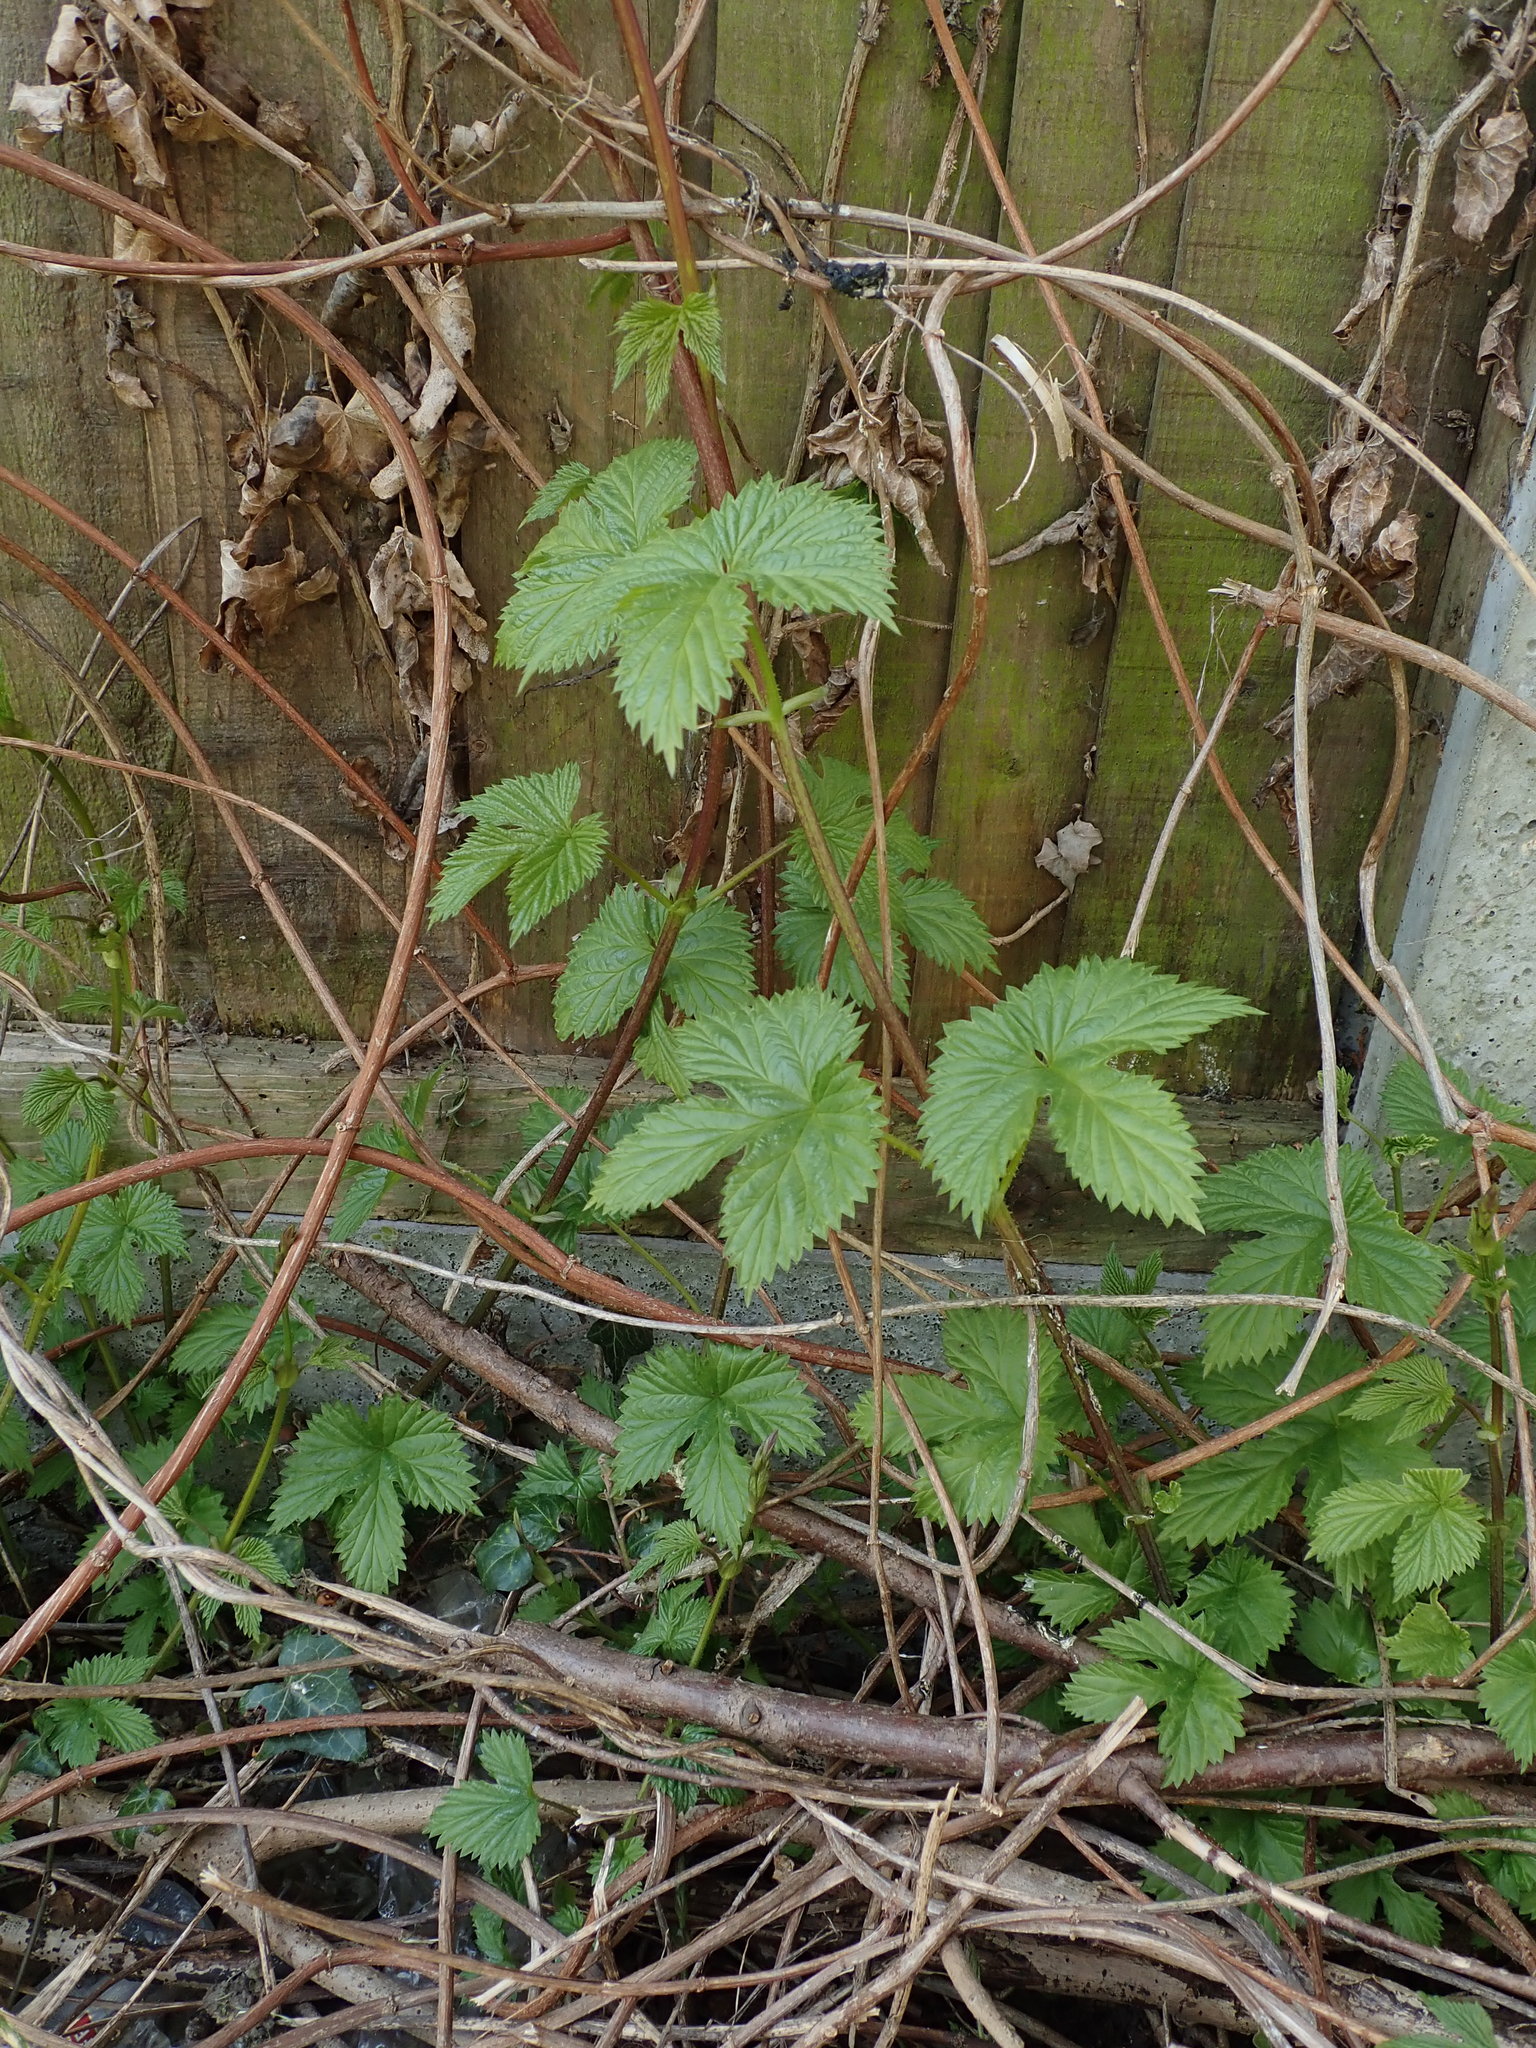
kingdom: Plantae
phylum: Tracheophyta
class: Magnoliopsida
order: Rosales
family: Cannabaceae
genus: Humulus
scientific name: Humulus lupulus
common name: Hop
